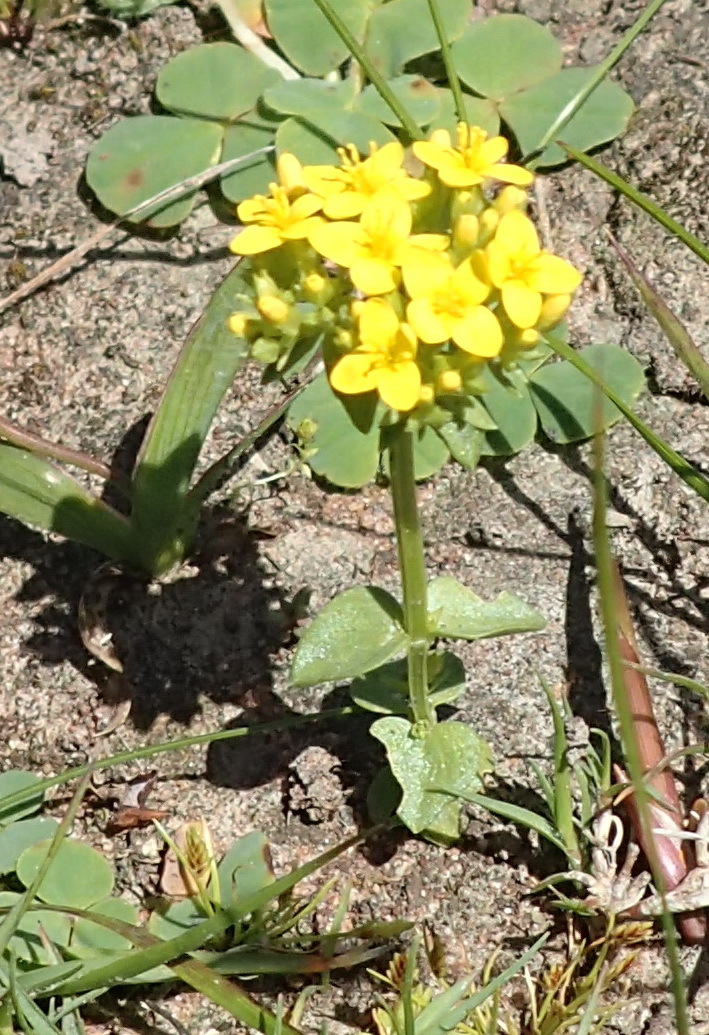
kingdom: Plantae
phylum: Tracheophyta
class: Magnoliopsida
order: Gentianales
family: Gentianaceae
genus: Sebaea
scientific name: Sebaea aurea
